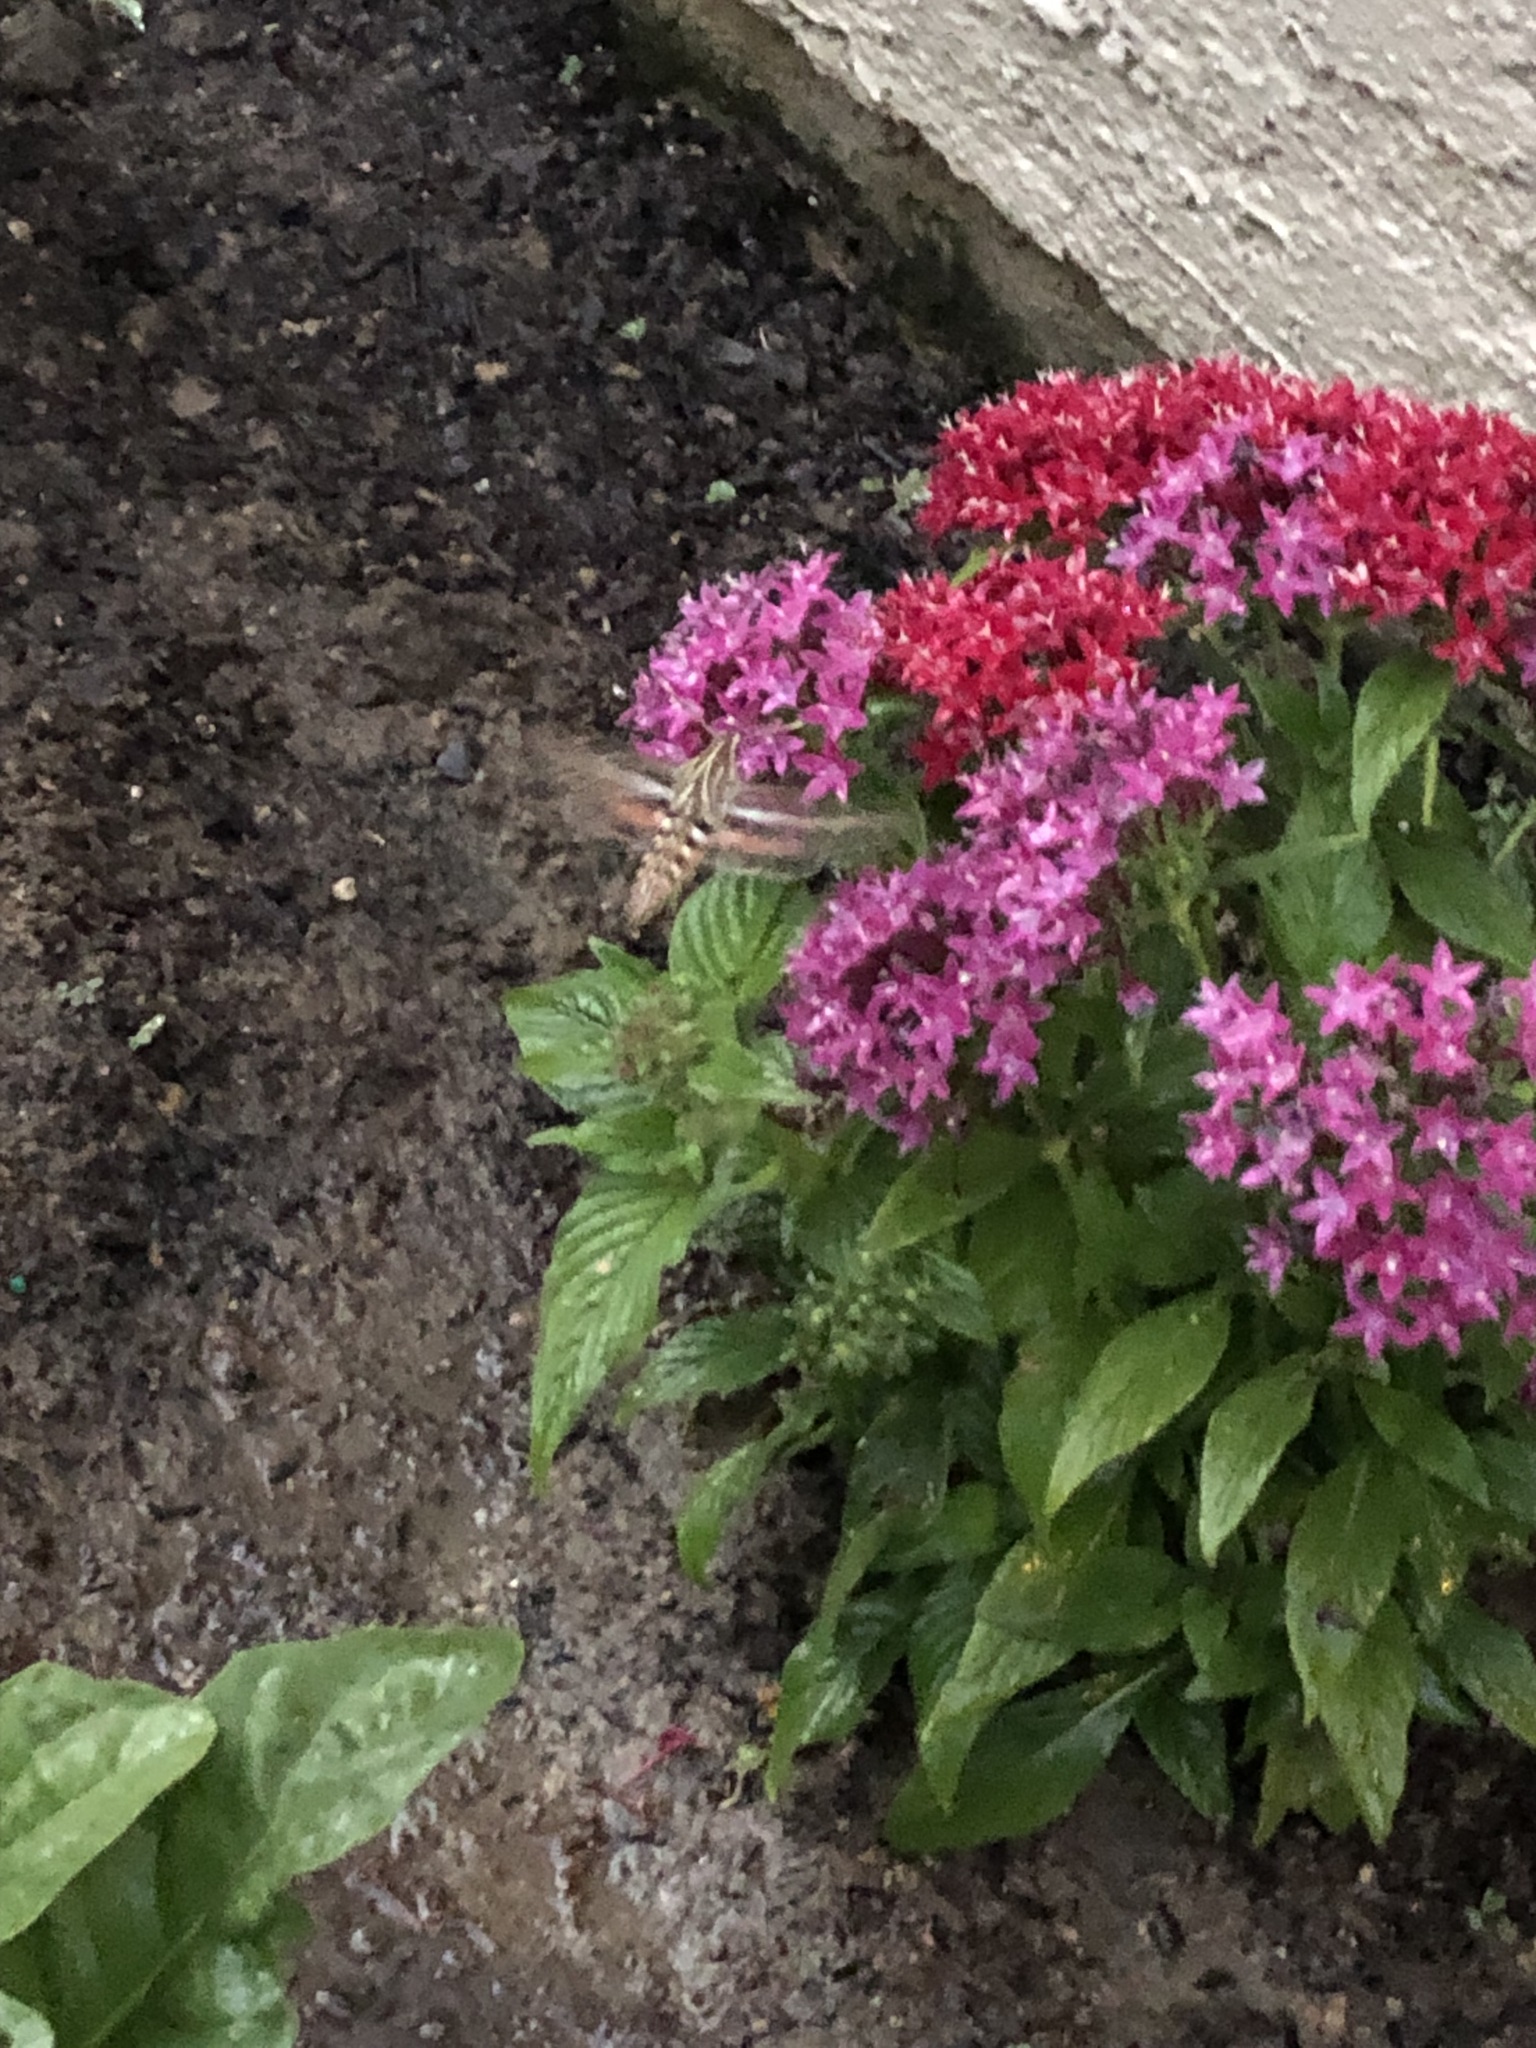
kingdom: Animalia
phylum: Arthropoda
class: Insecta
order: Lepidoptera
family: Sphingidae
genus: Hyles
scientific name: Hyles lineata
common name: White-lined sphinx
